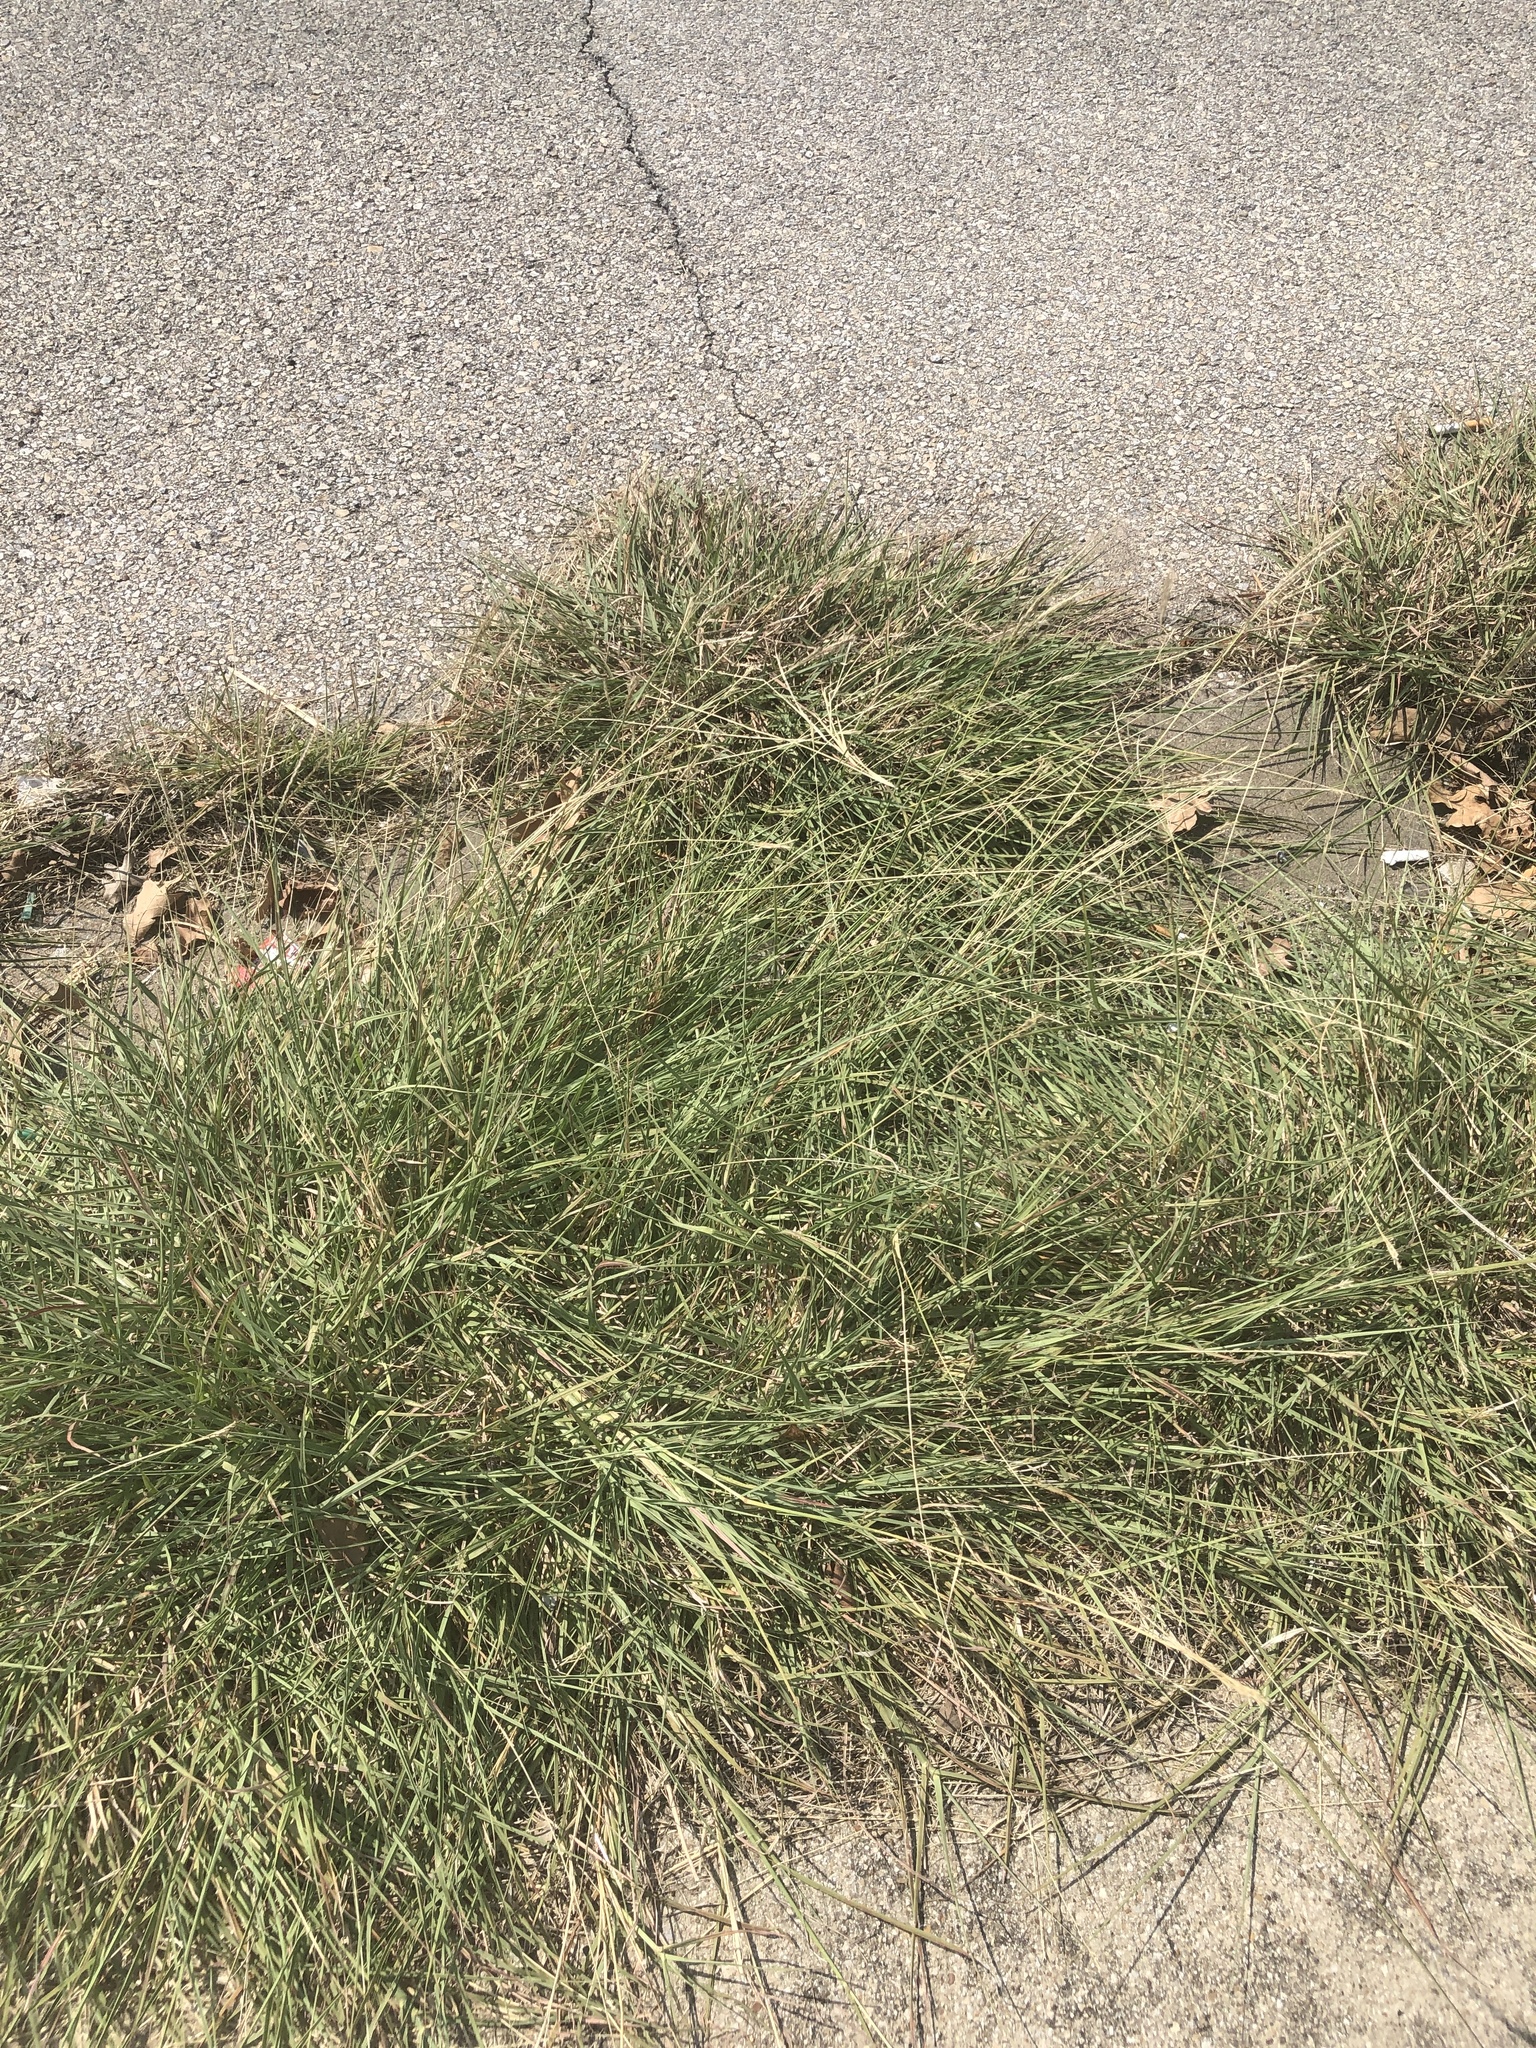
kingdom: Plantae
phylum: Tracheophyta
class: Liliopsida
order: Poales
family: Poaceae
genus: Bothriochloa
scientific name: Bothriochloa ischaemum
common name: Yellow bluestem
